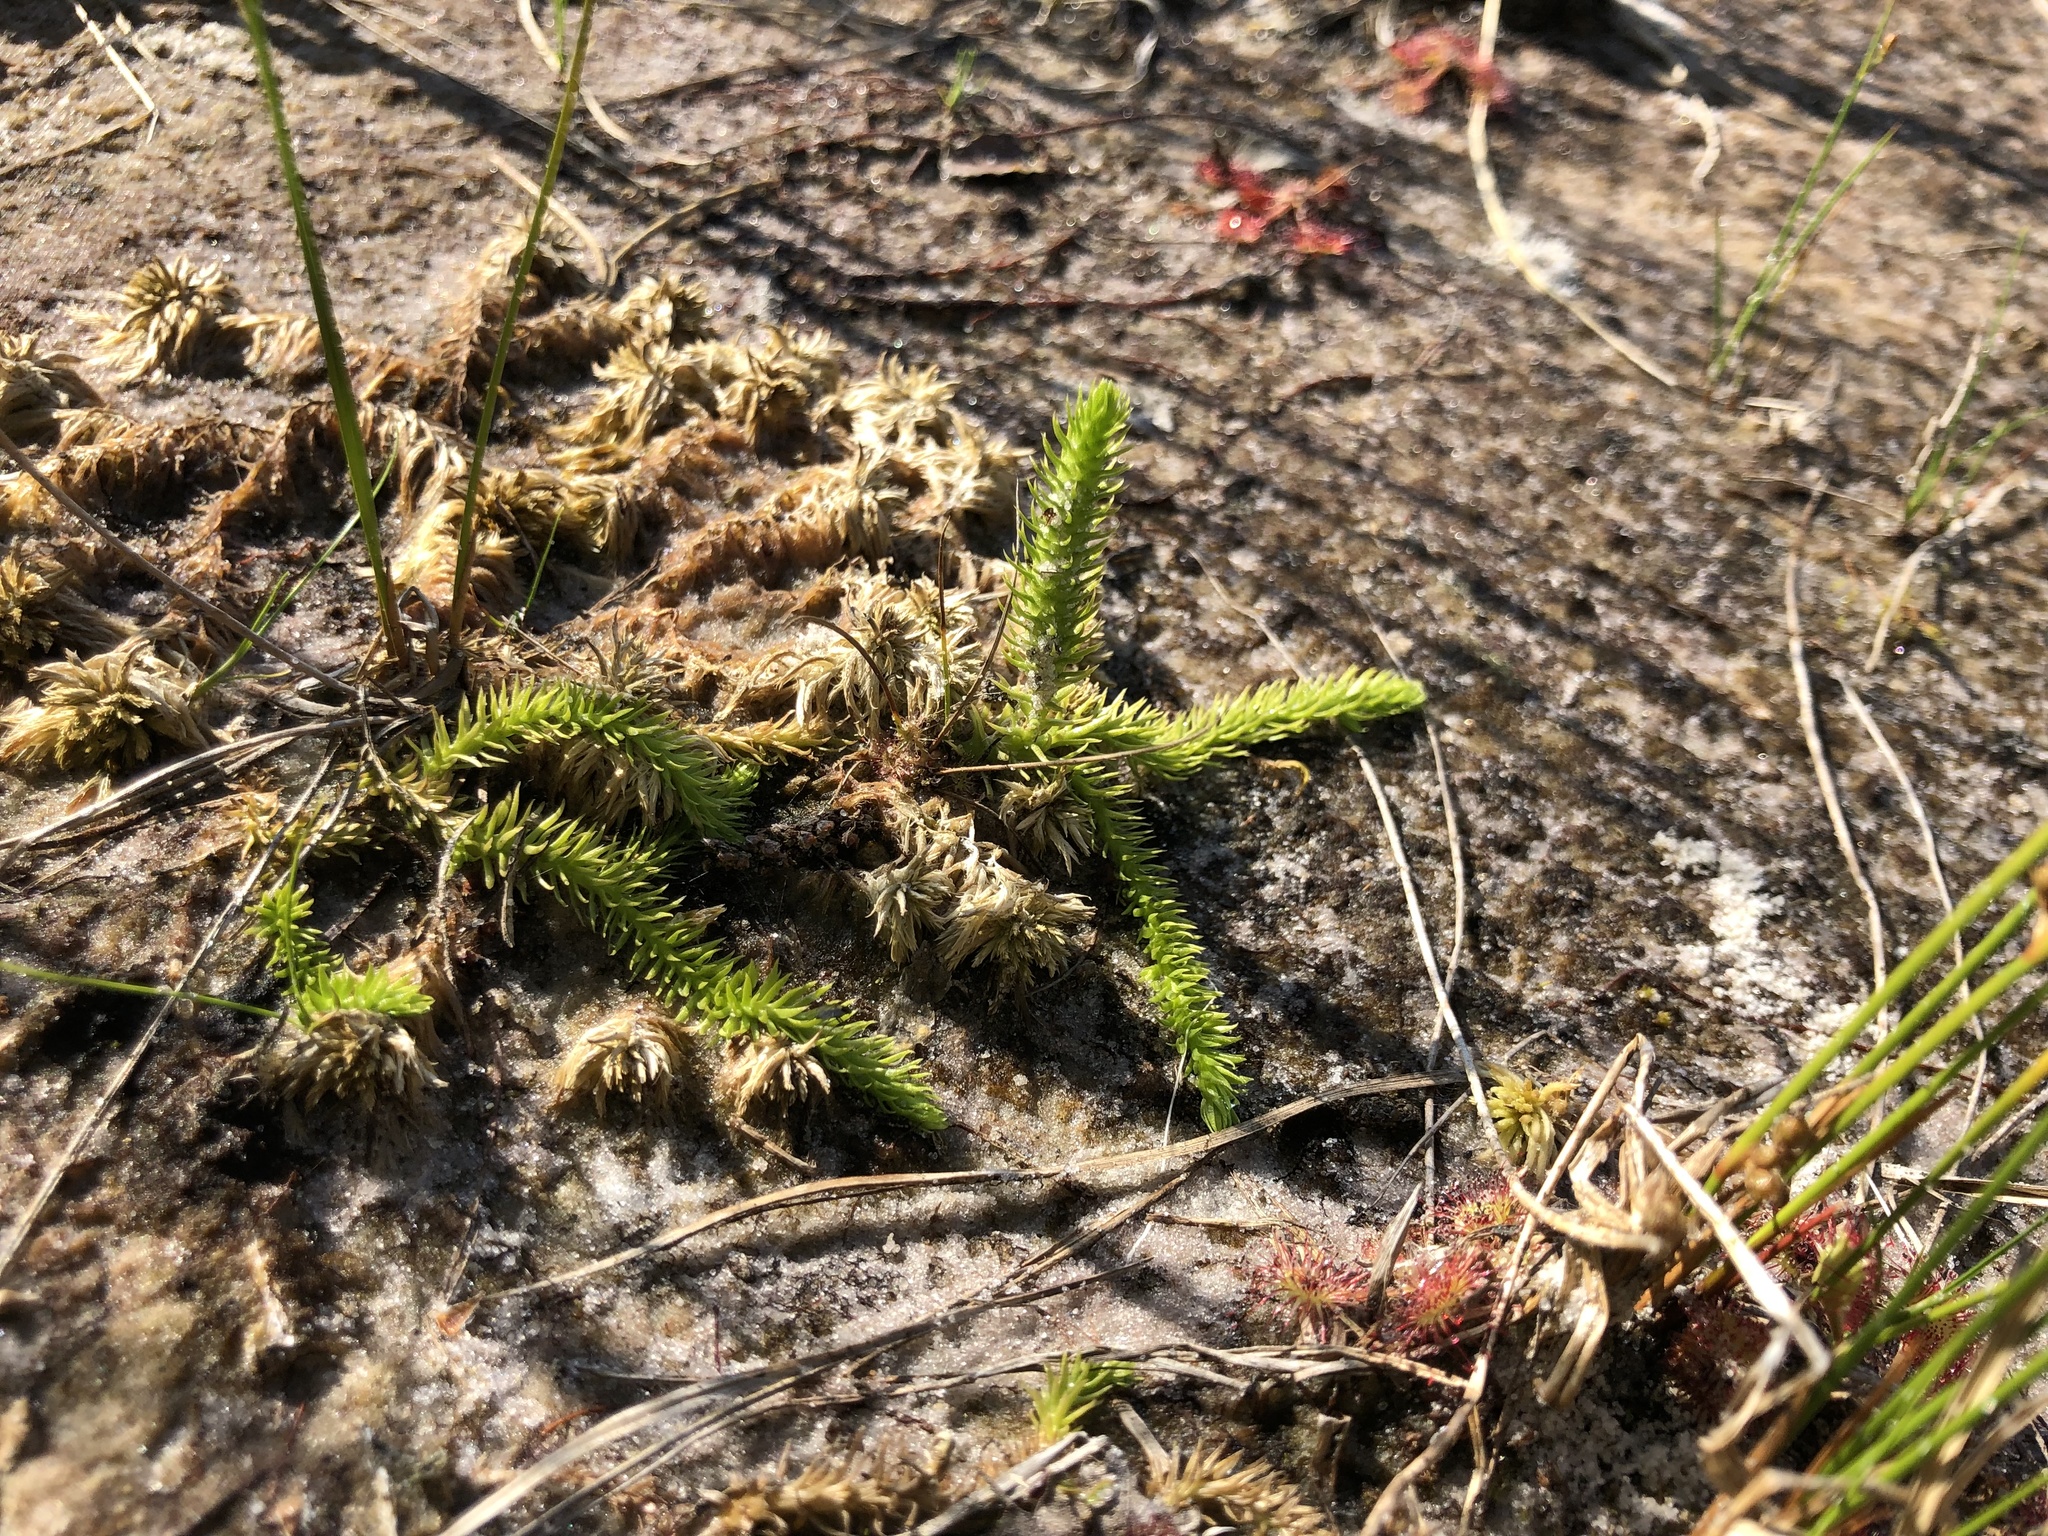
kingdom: Plantae
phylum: Tracheophyta
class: Lycopodiopsida
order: Lycopodiales
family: Lycopodiaceae
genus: Lycopodiella
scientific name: Lycopodiella inundata
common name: Marsh clubmoss
